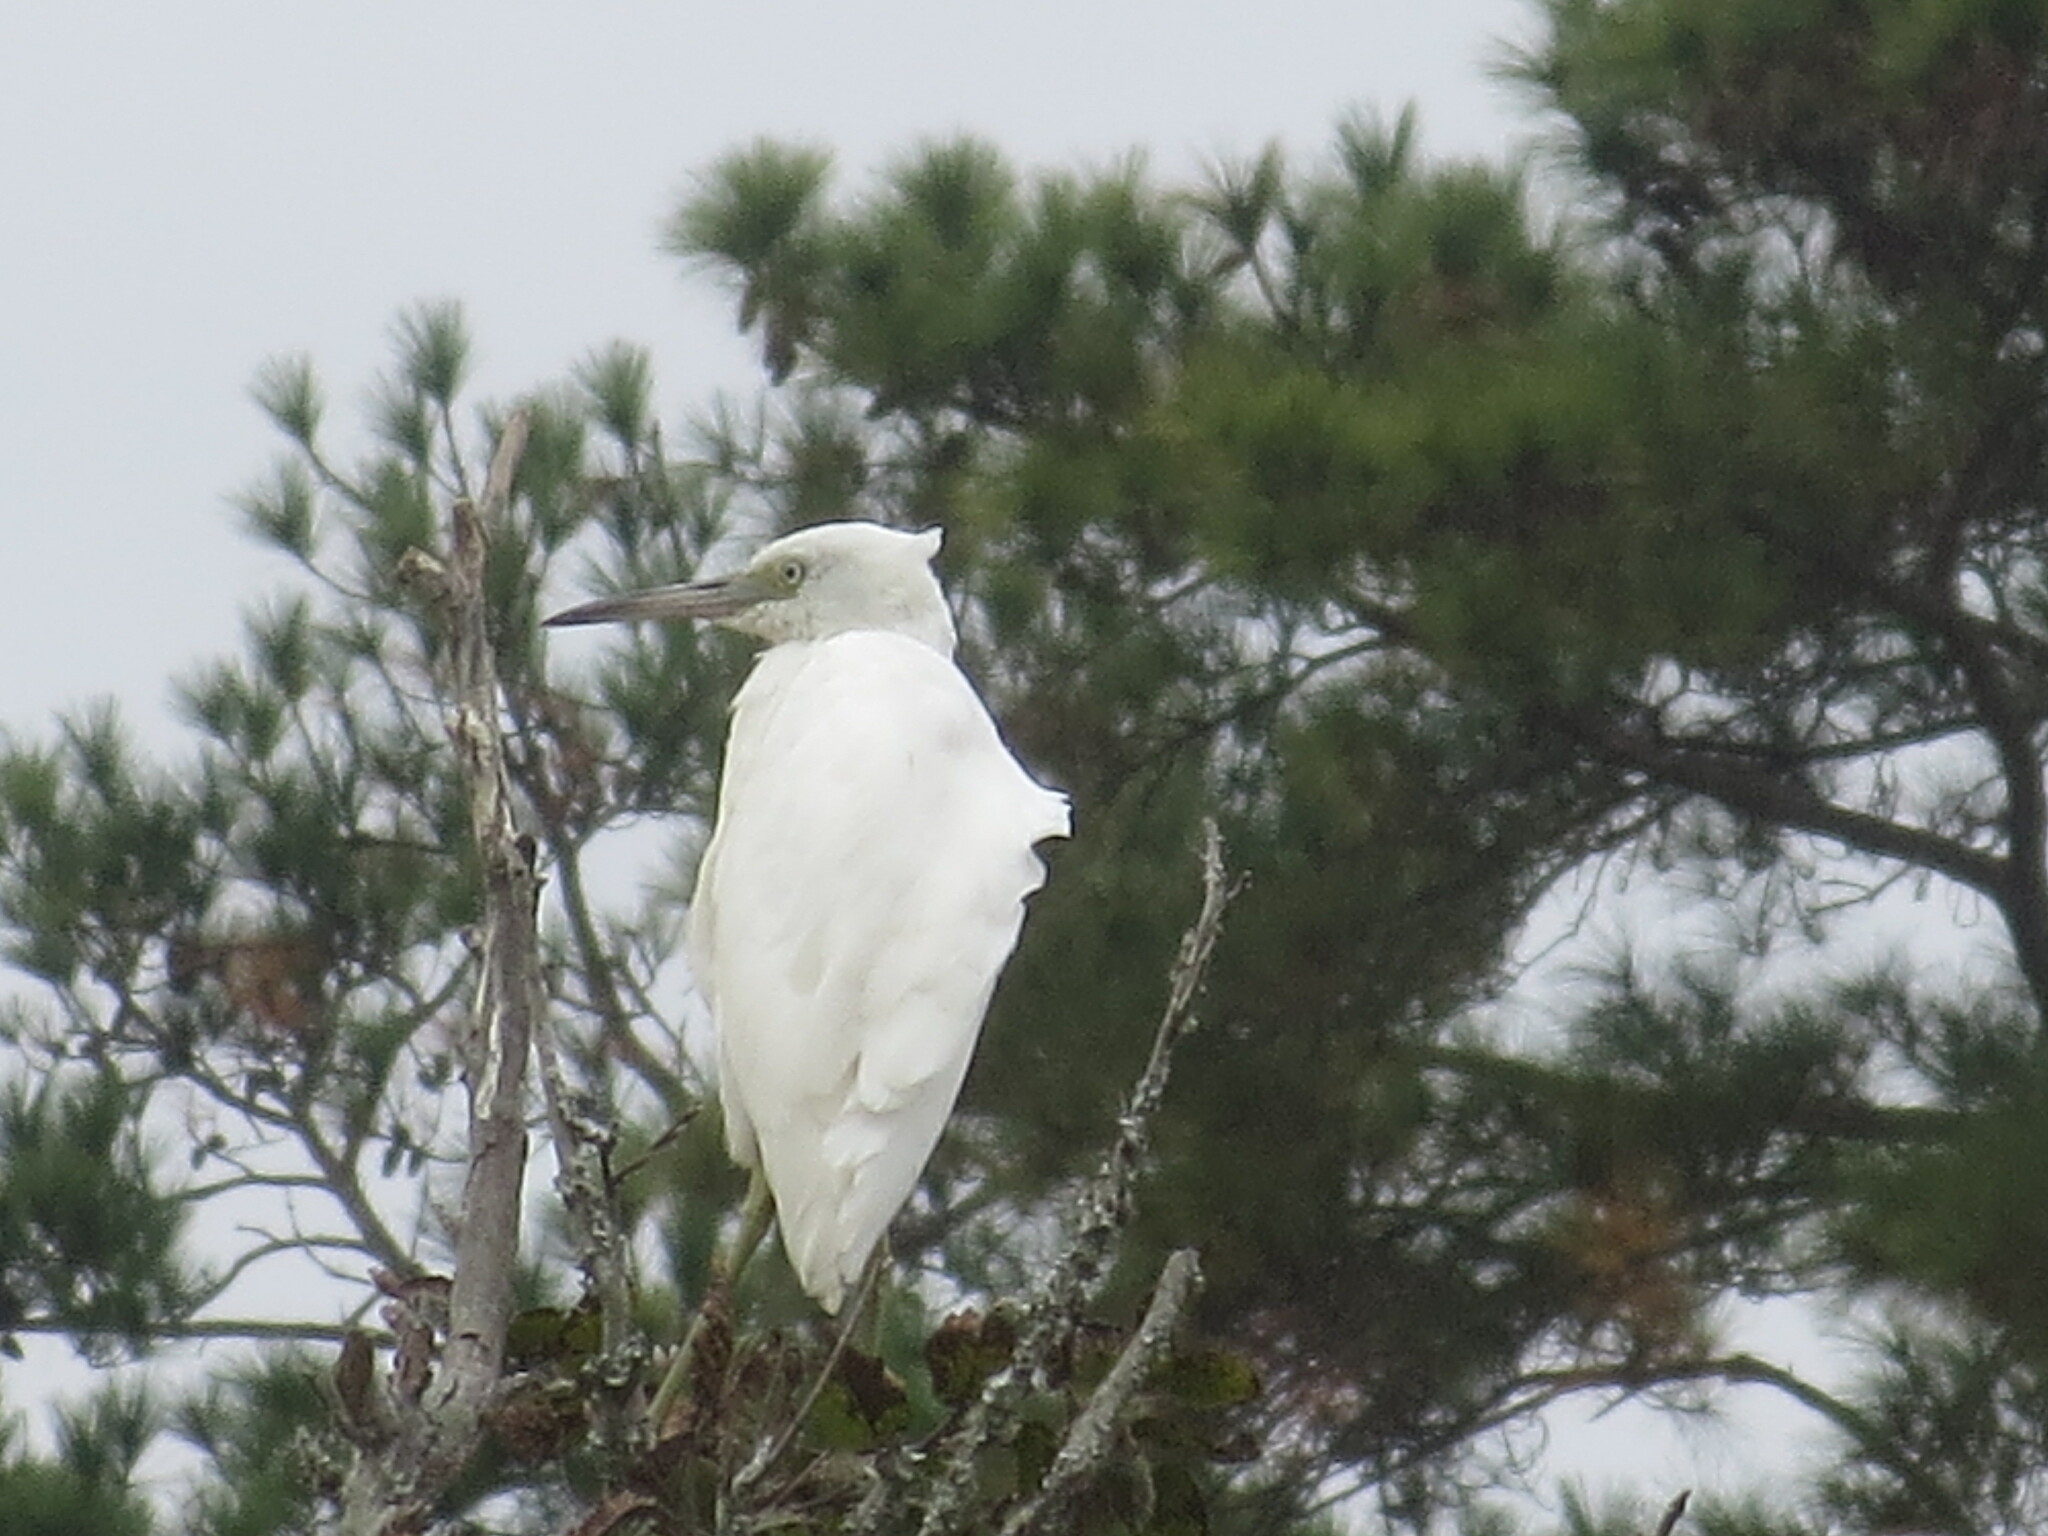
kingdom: Animalia
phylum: Chordata
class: Aves
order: Pelecaniformes
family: Ardeidae
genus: Egretta
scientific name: Egretta caerulea
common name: Little blue heron
